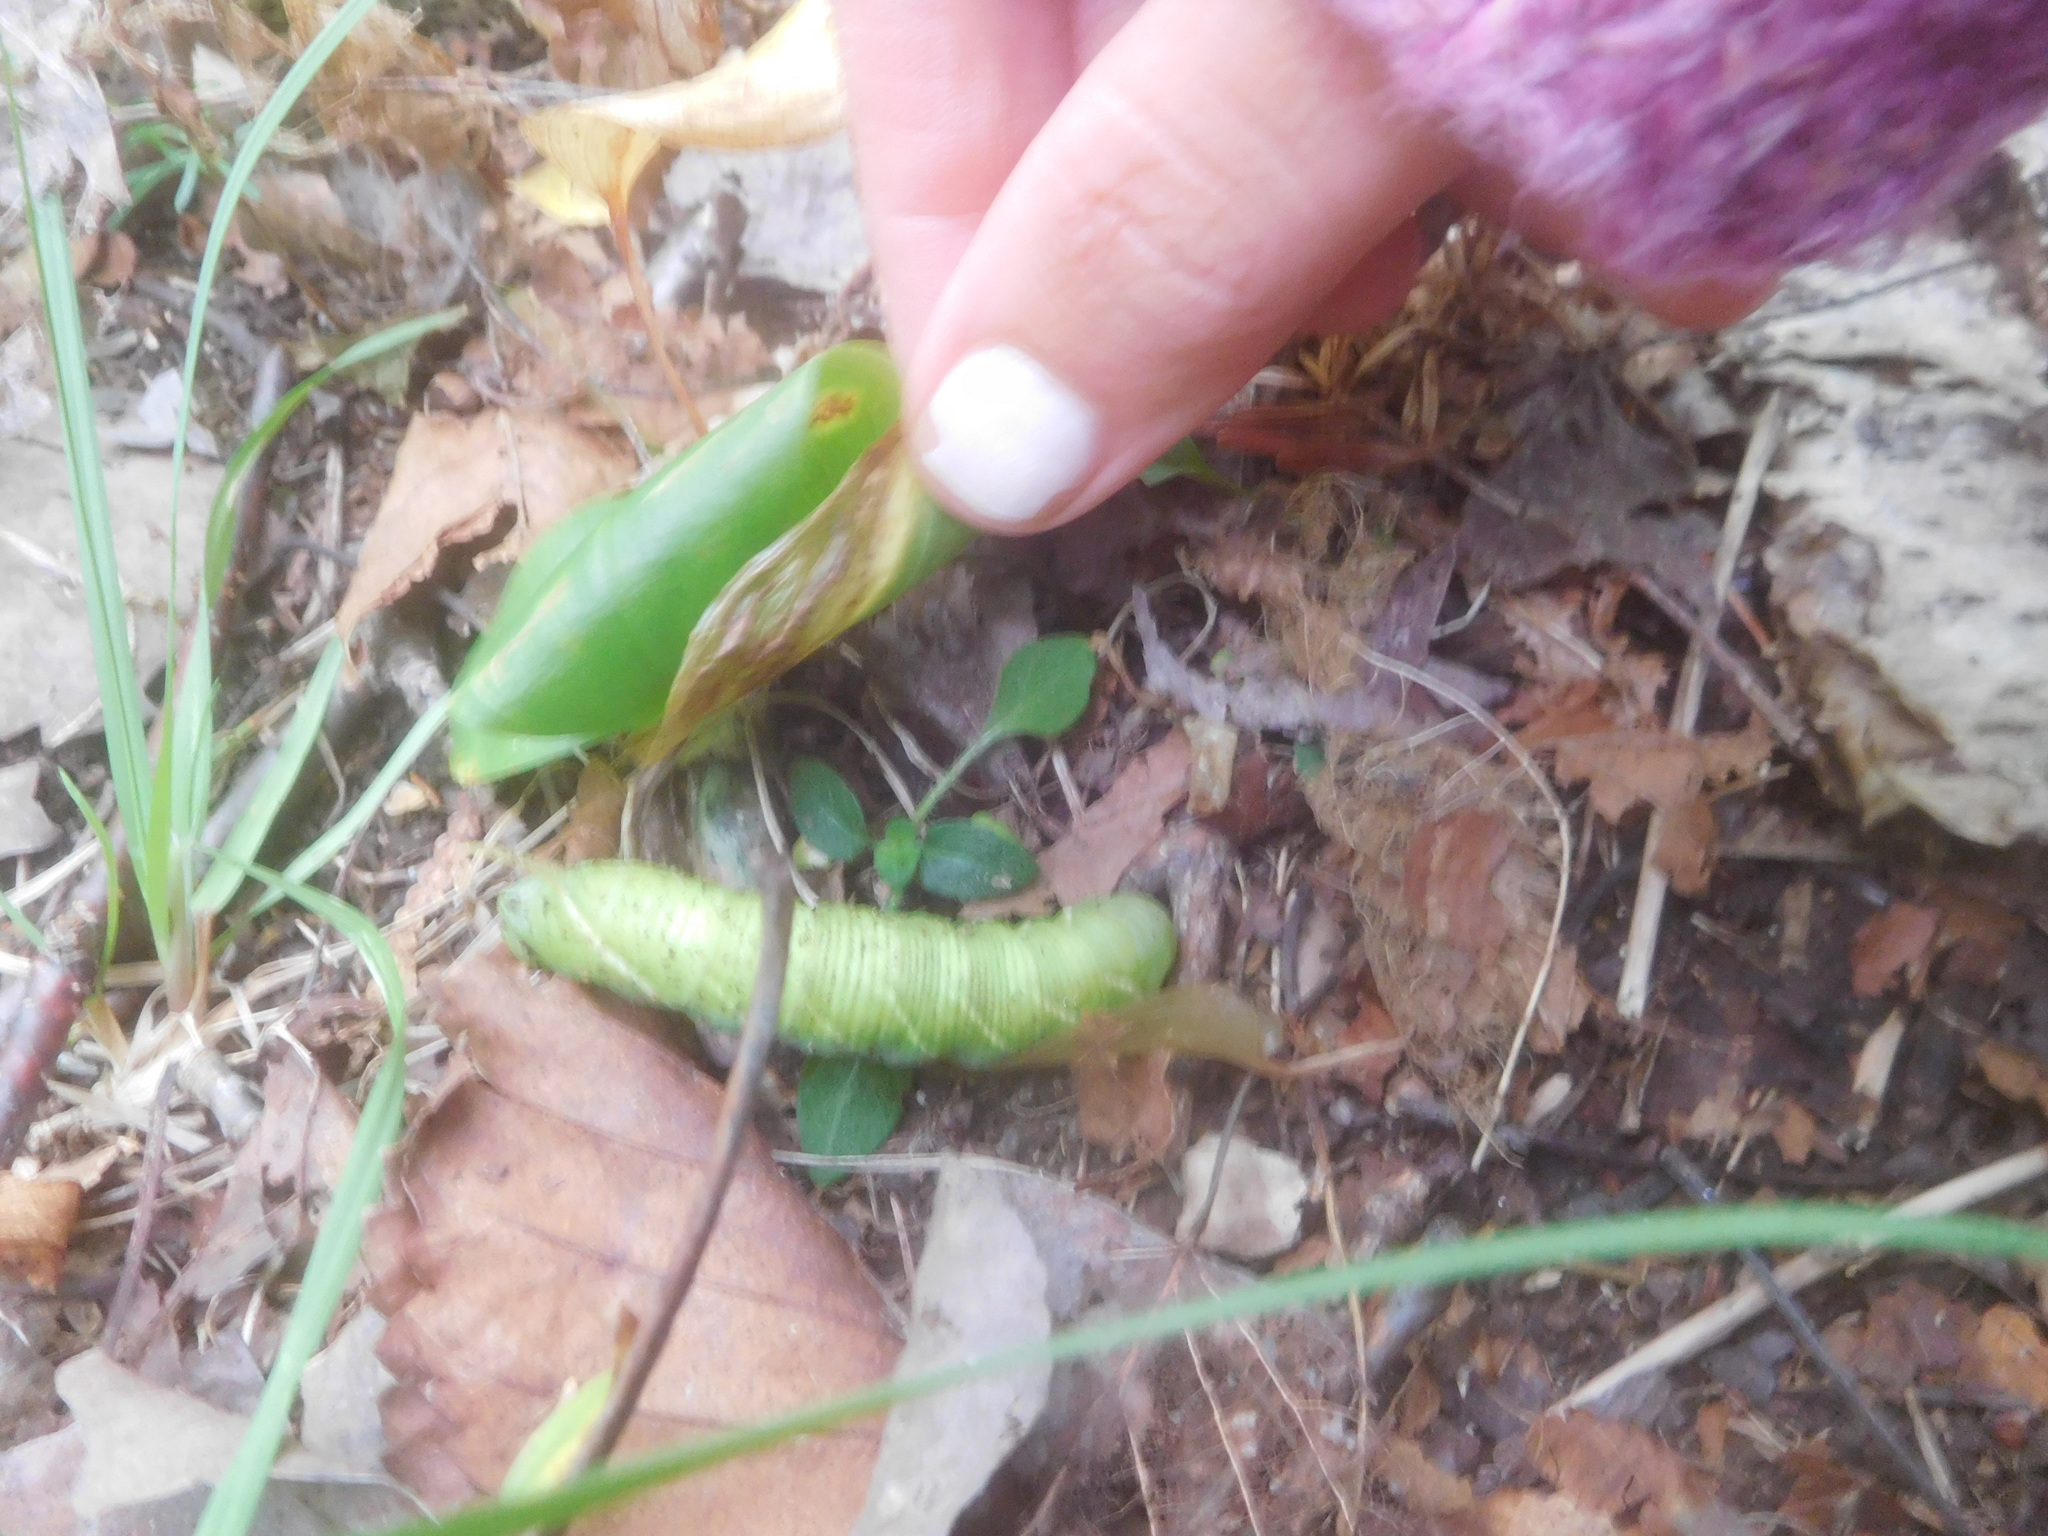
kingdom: Animalia
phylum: Arthropoda
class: Insecta
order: Lepidoptera
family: Sphingidae
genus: Ceratomia
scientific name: Ceratomia undulosa
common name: Waved sphinx
